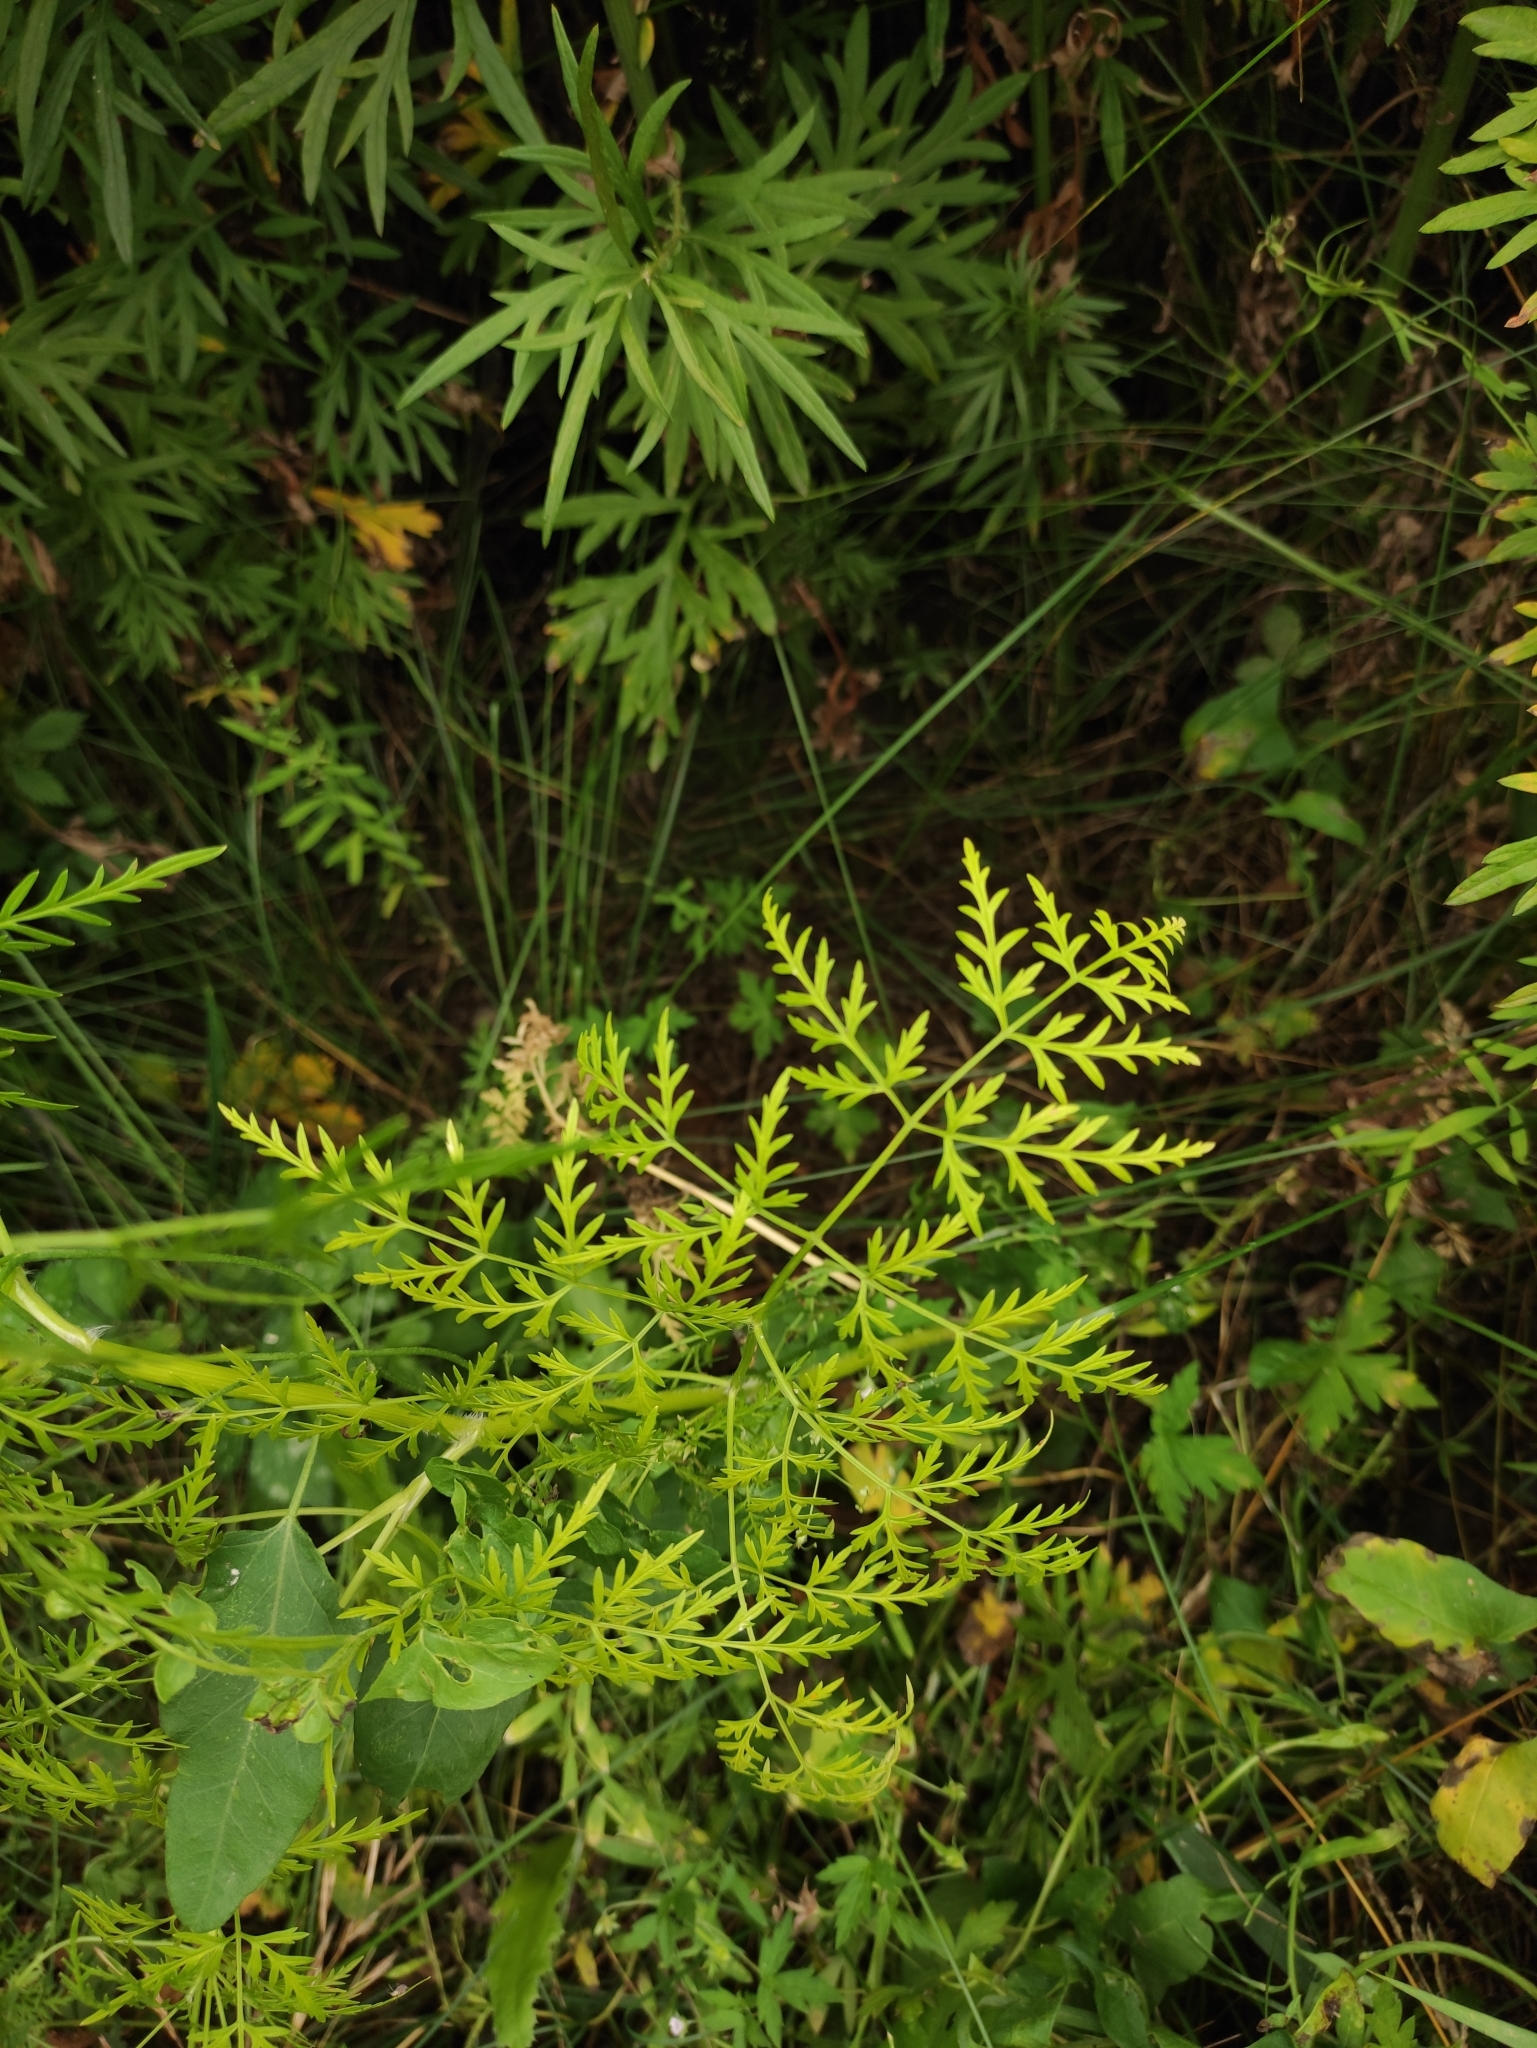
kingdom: Plantae
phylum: Tracheophyta
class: Magnoliopsida
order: Apiales
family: Apiaceae
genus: Sphallerocarpus
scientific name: Sphallerocarpus gracilis
